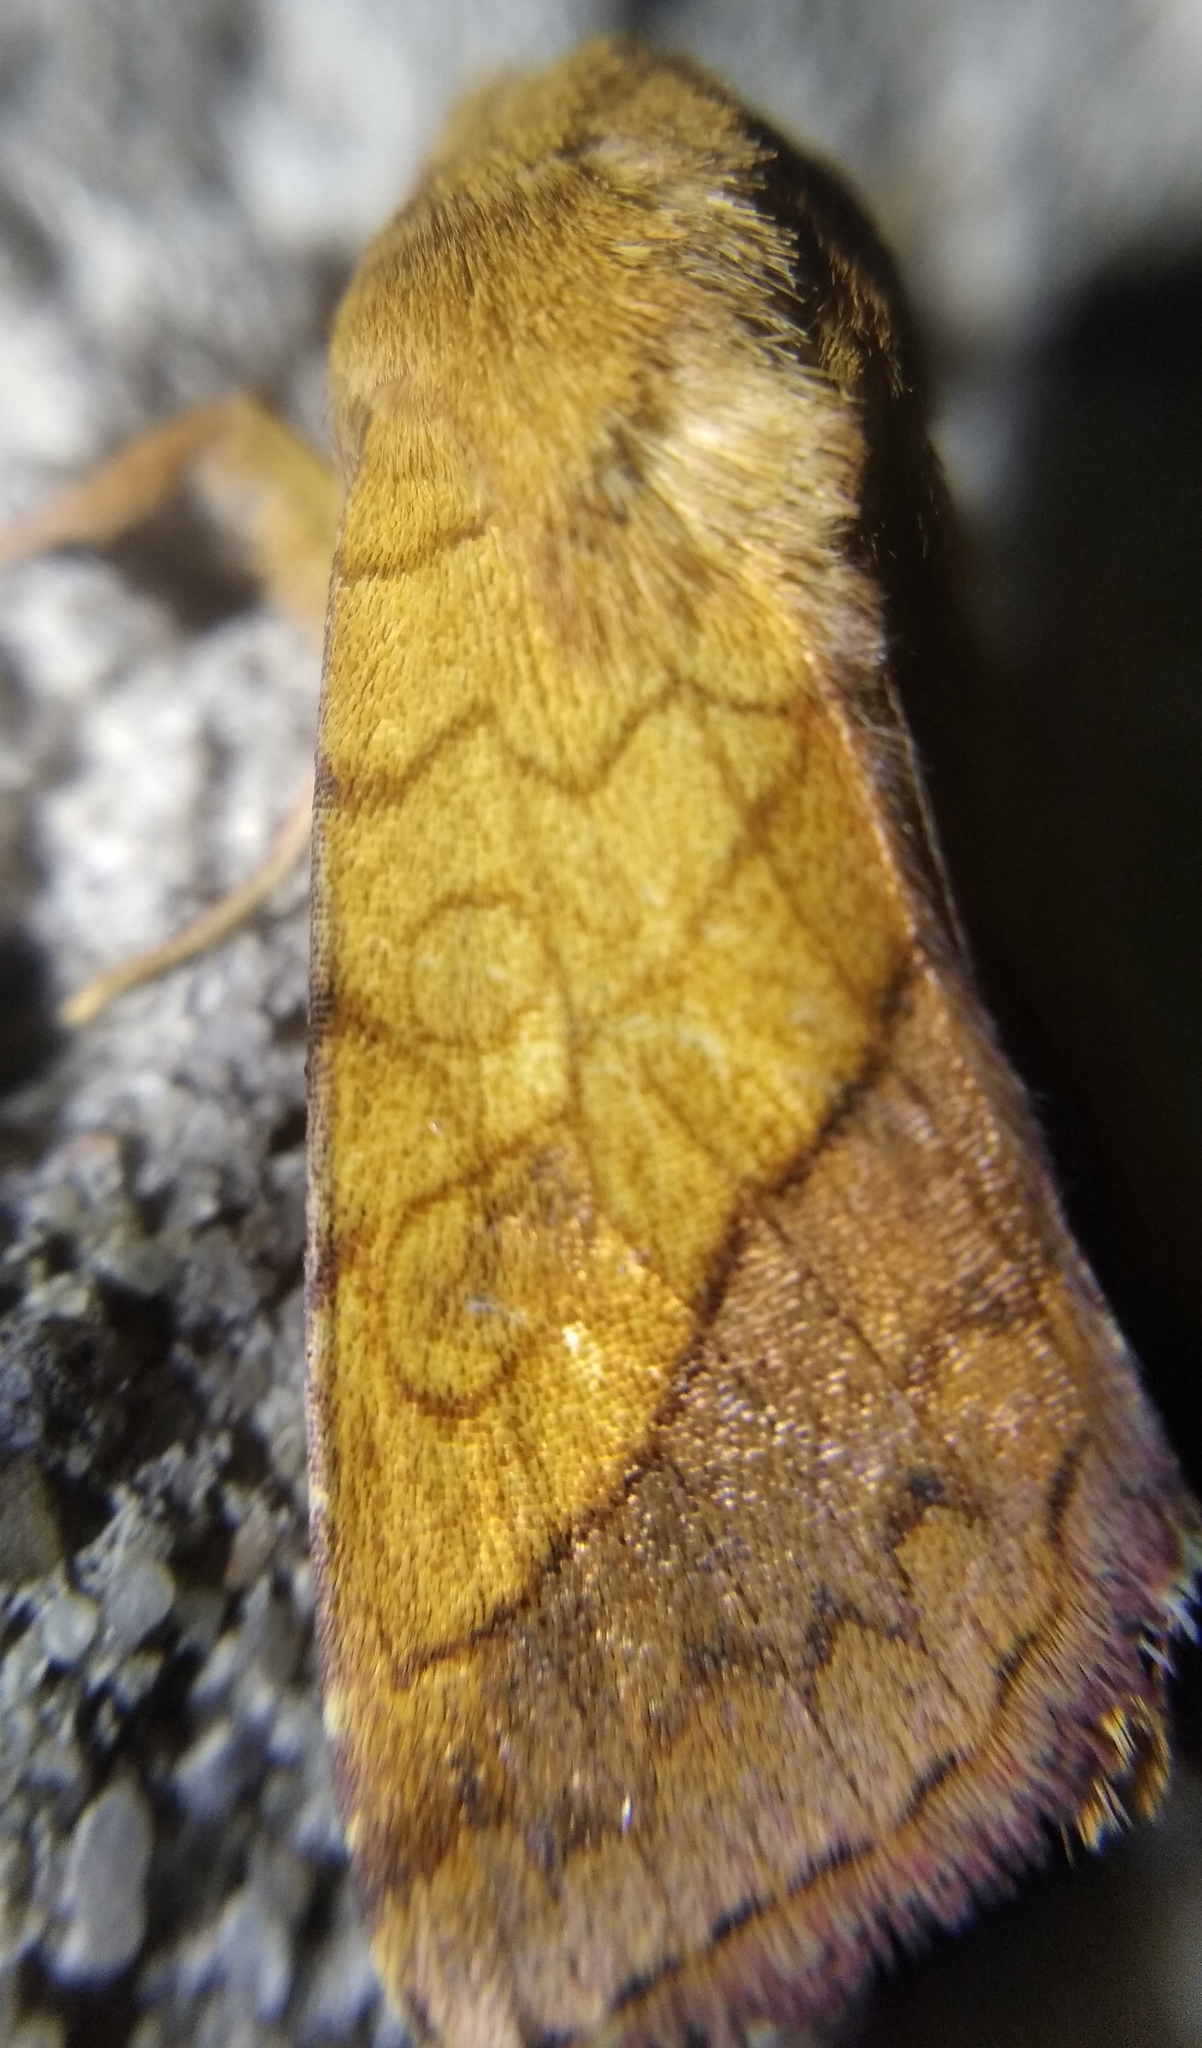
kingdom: Animalia
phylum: Arthropoda
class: Insecta
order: Lepidoptera
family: Noctuidae
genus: Pyrrhia
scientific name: Pyrrhia umbra
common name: Bordered sallow
